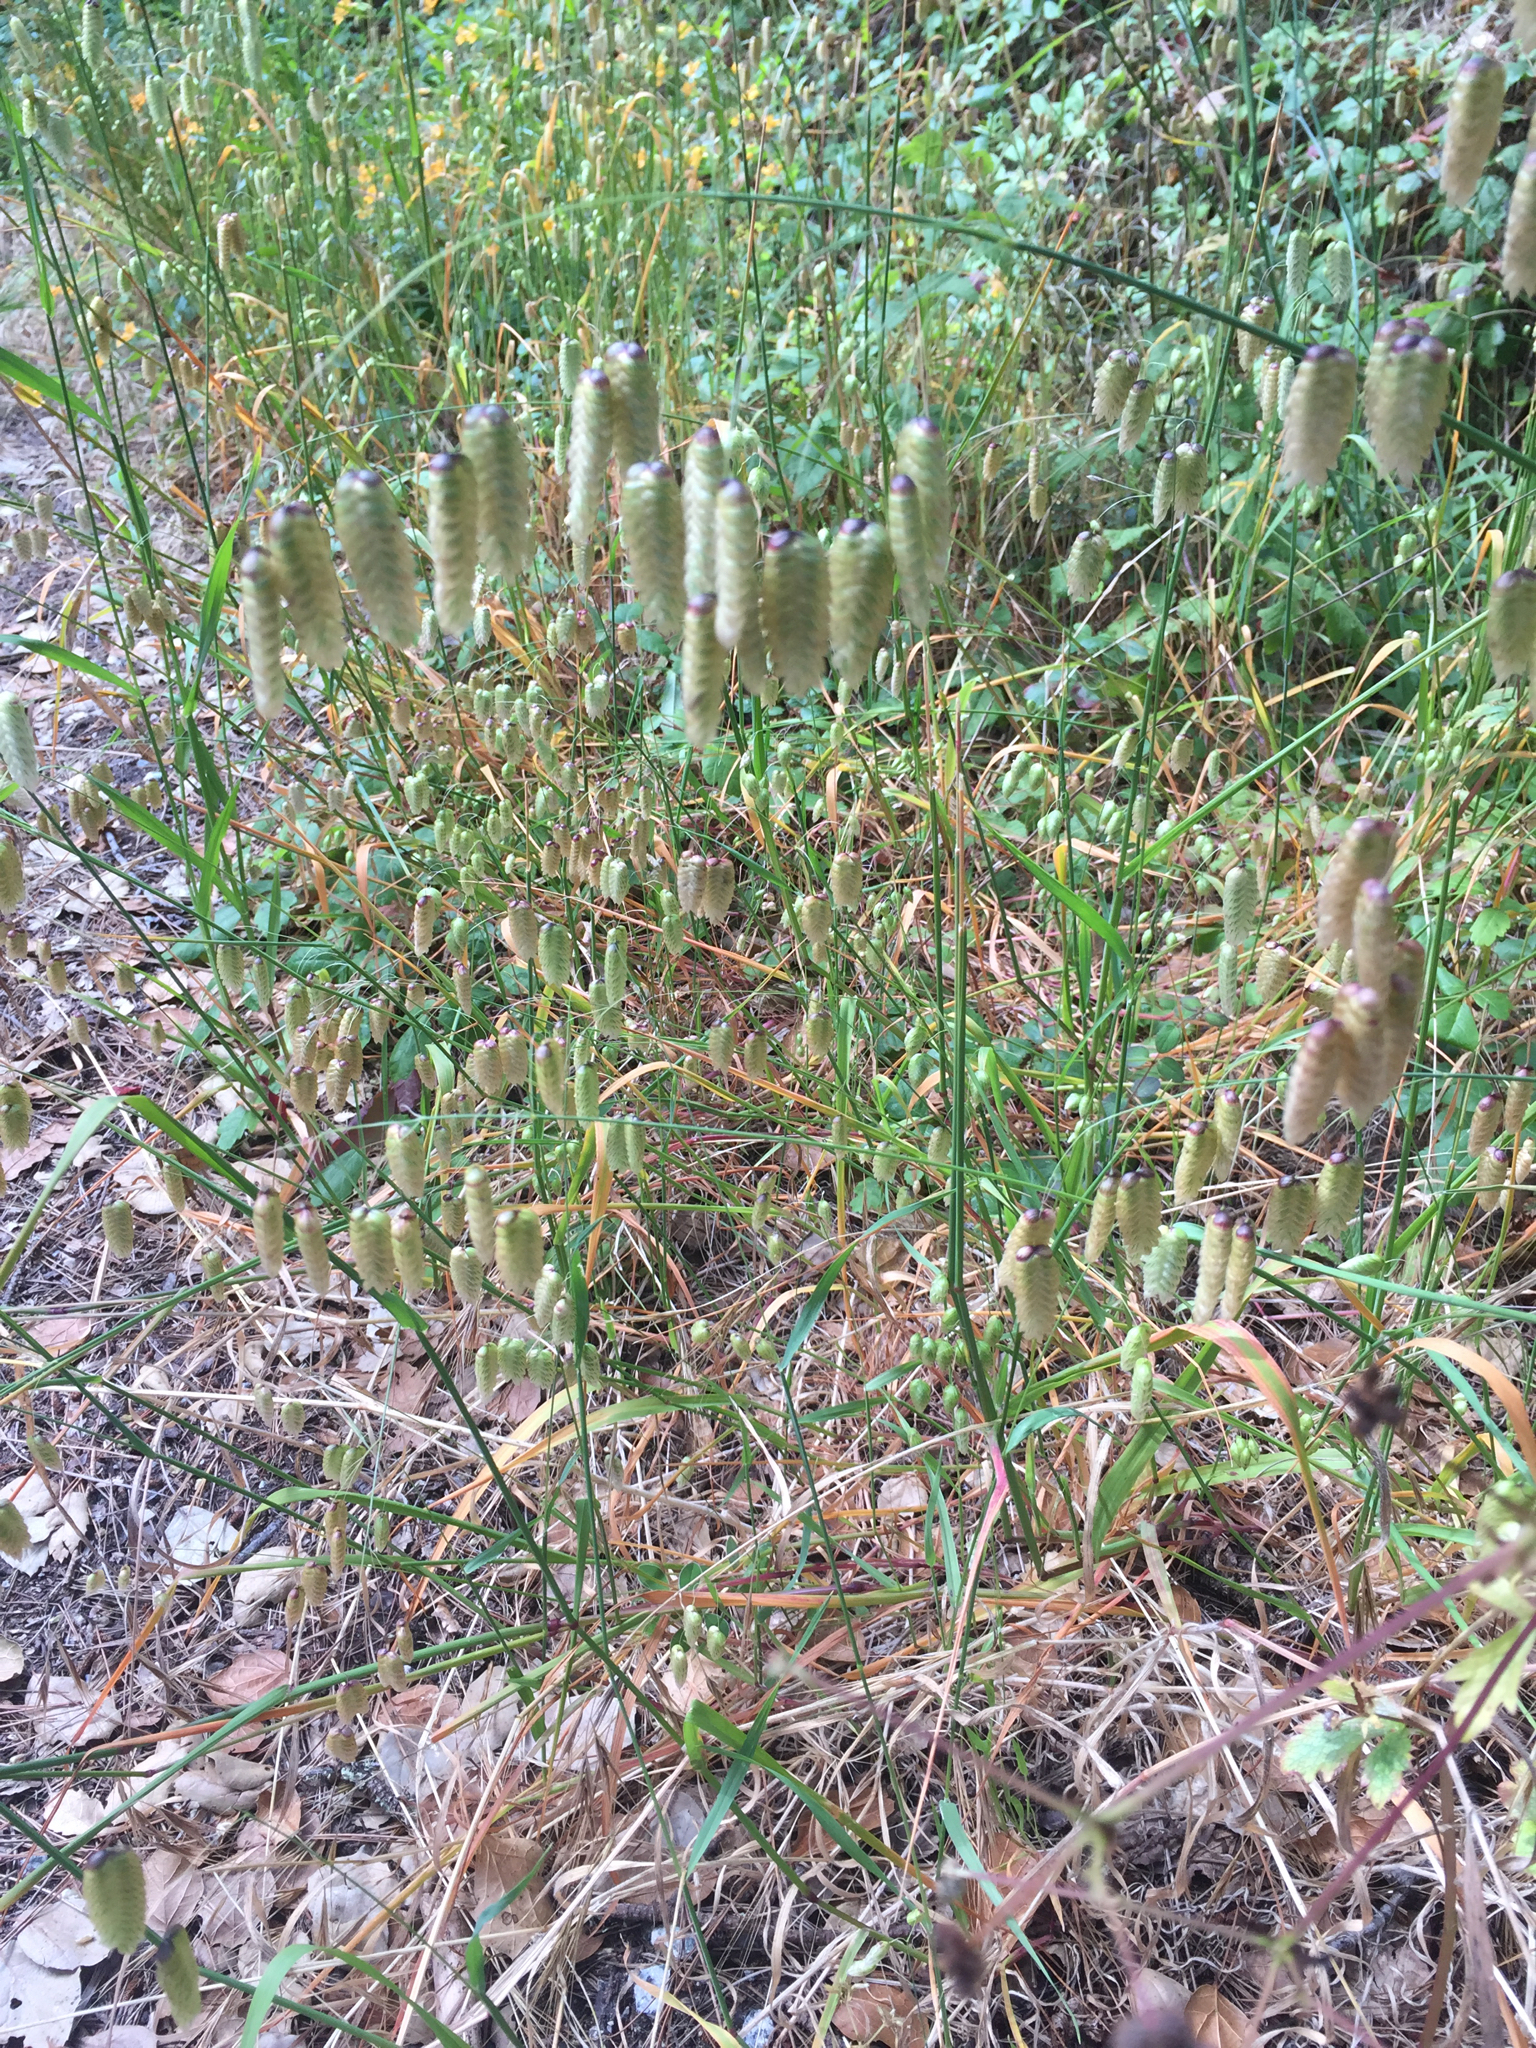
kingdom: Plantae
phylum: Tracheophyta
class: Liliopsida
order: Poales
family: Poaceae
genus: Briza
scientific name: Briza maxima
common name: Big quakinggrass
